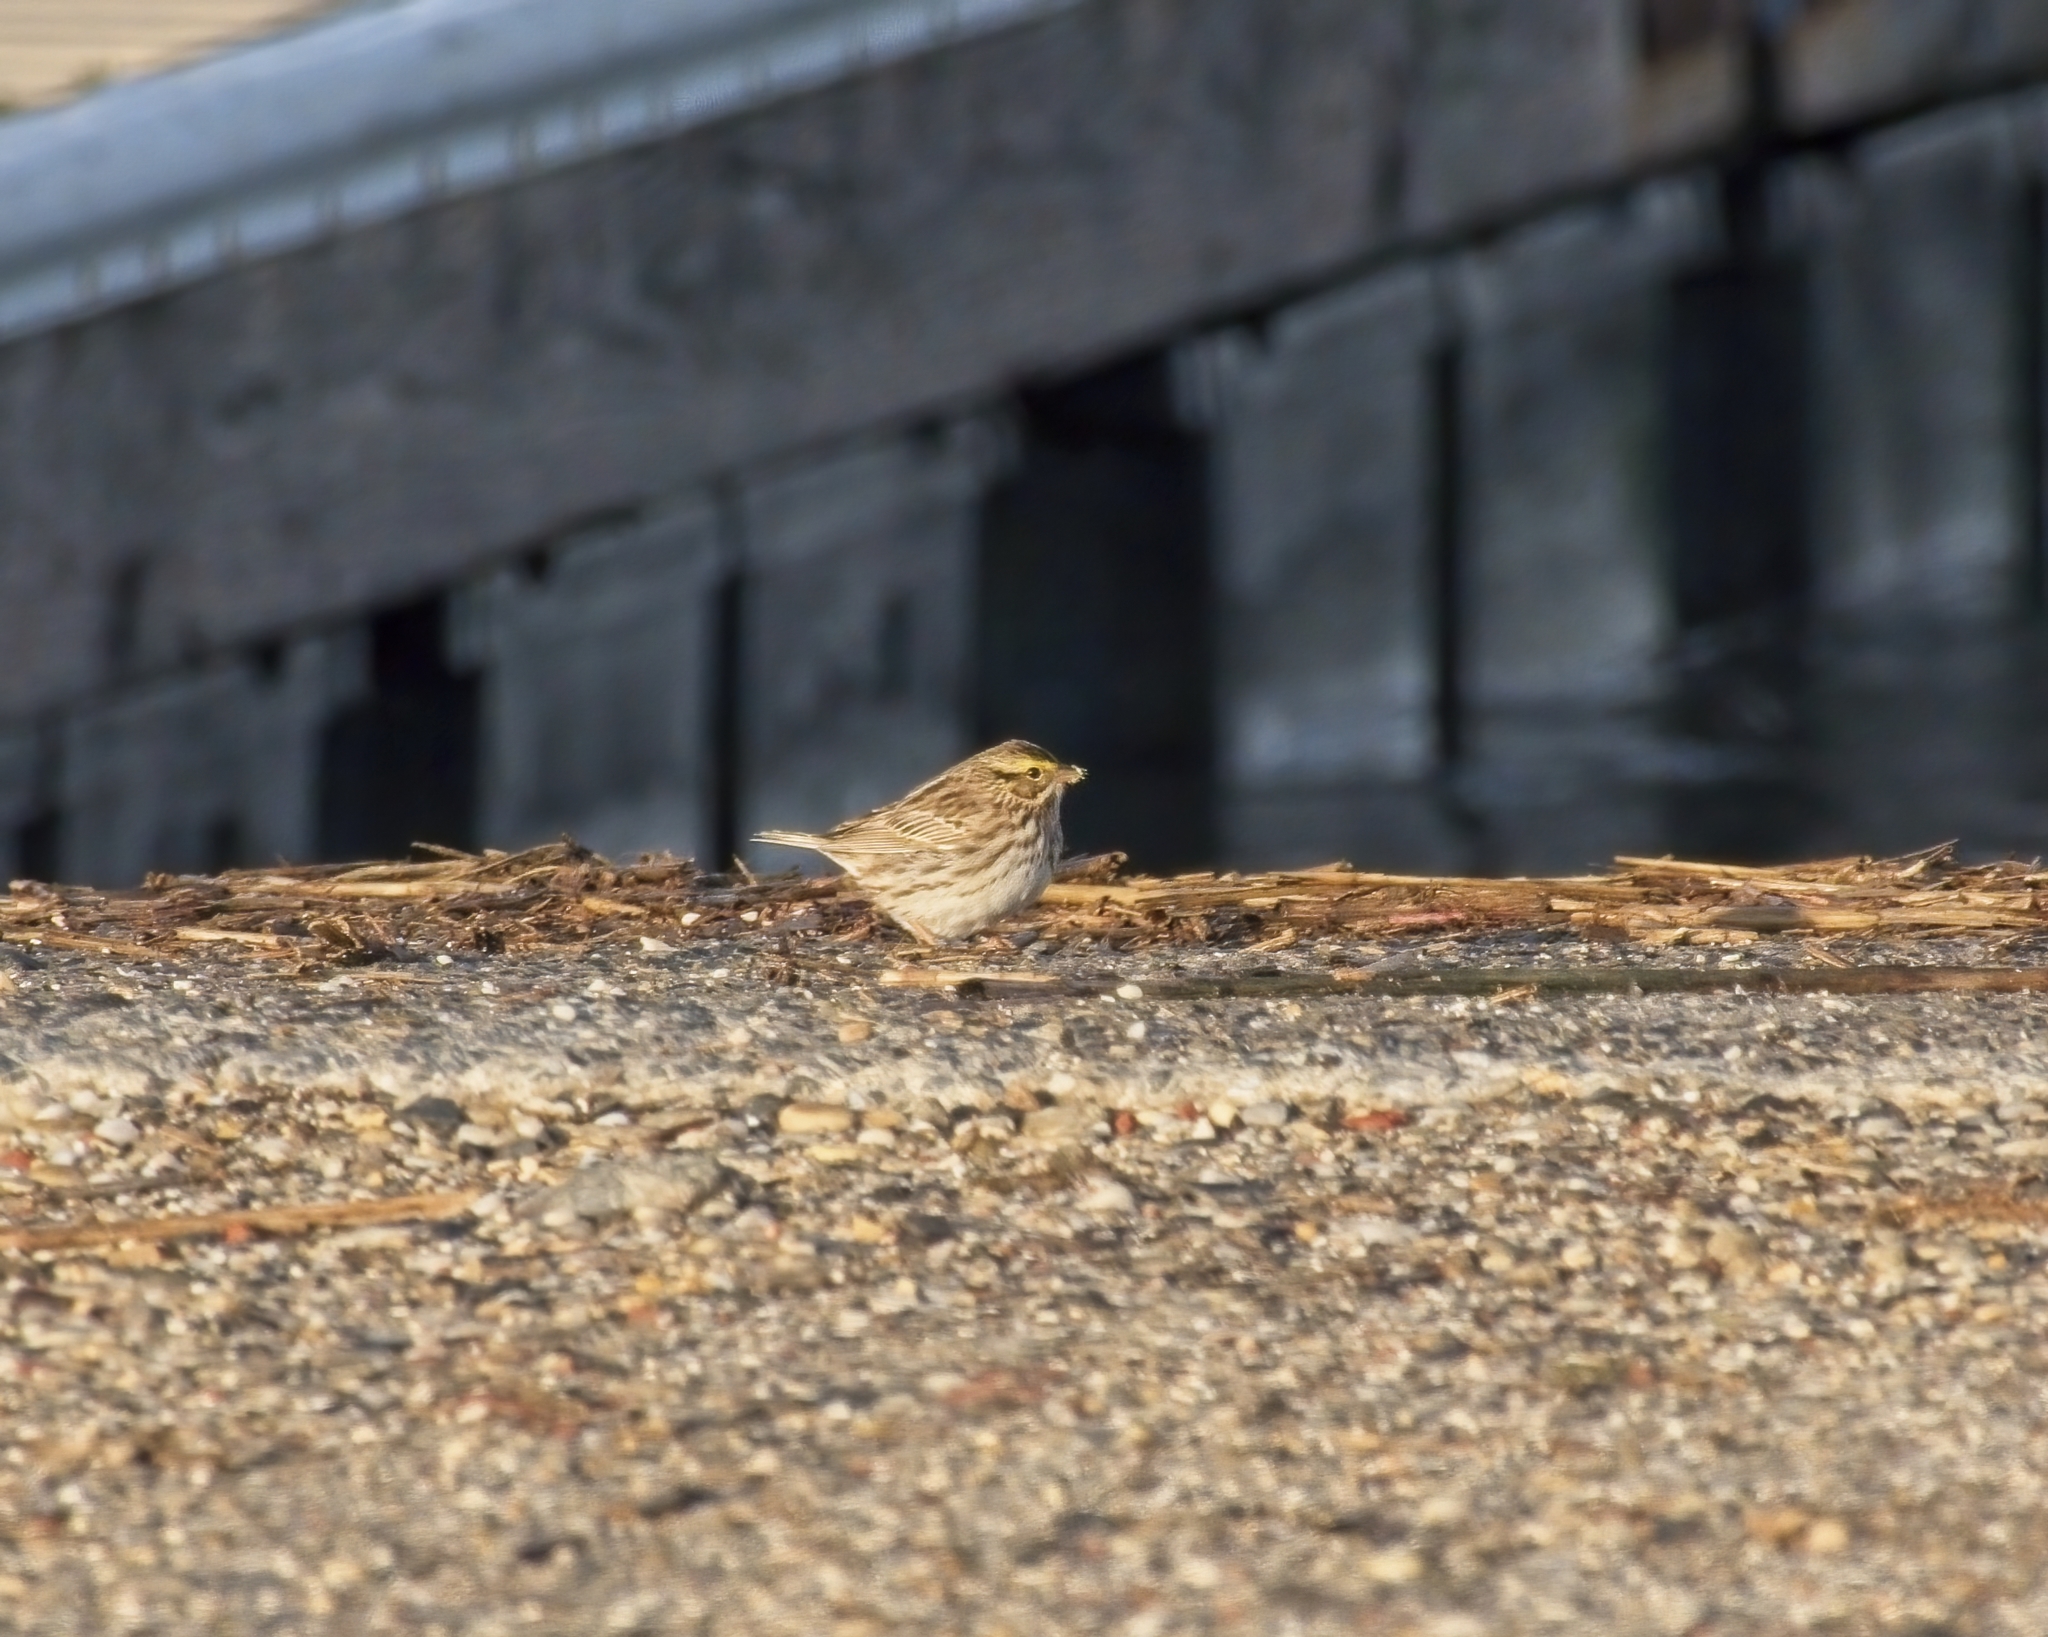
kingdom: Animalia
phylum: Chordata
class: Aves
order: Passeriformes
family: Passerellidae
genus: Passerculus
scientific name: Passerculus sandwichensis
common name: Savannah sparrow
